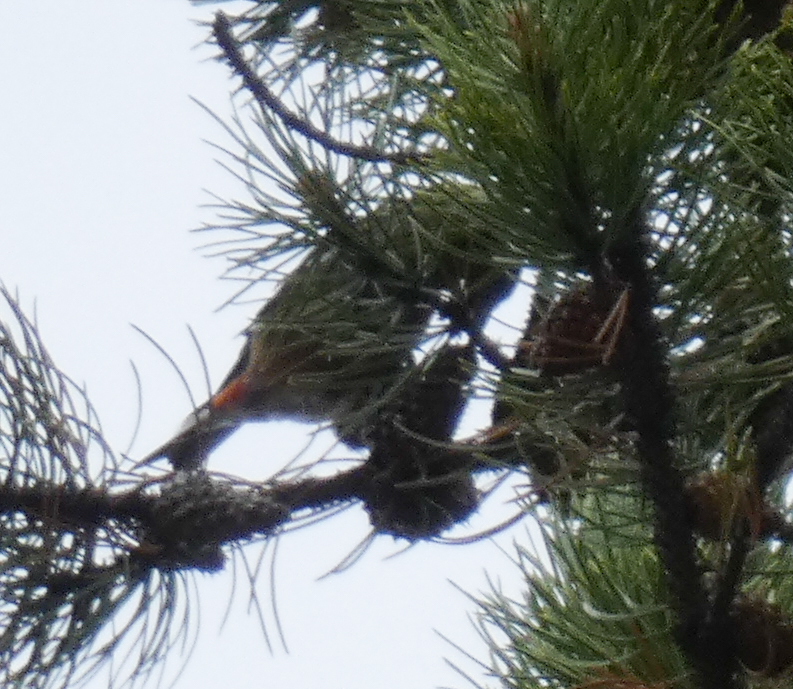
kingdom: Animalia
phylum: Chordata
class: Aves
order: Passeriformes
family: Fringillidae
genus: Loxia
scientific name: Loxia curvirostra
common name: Red crossbill
